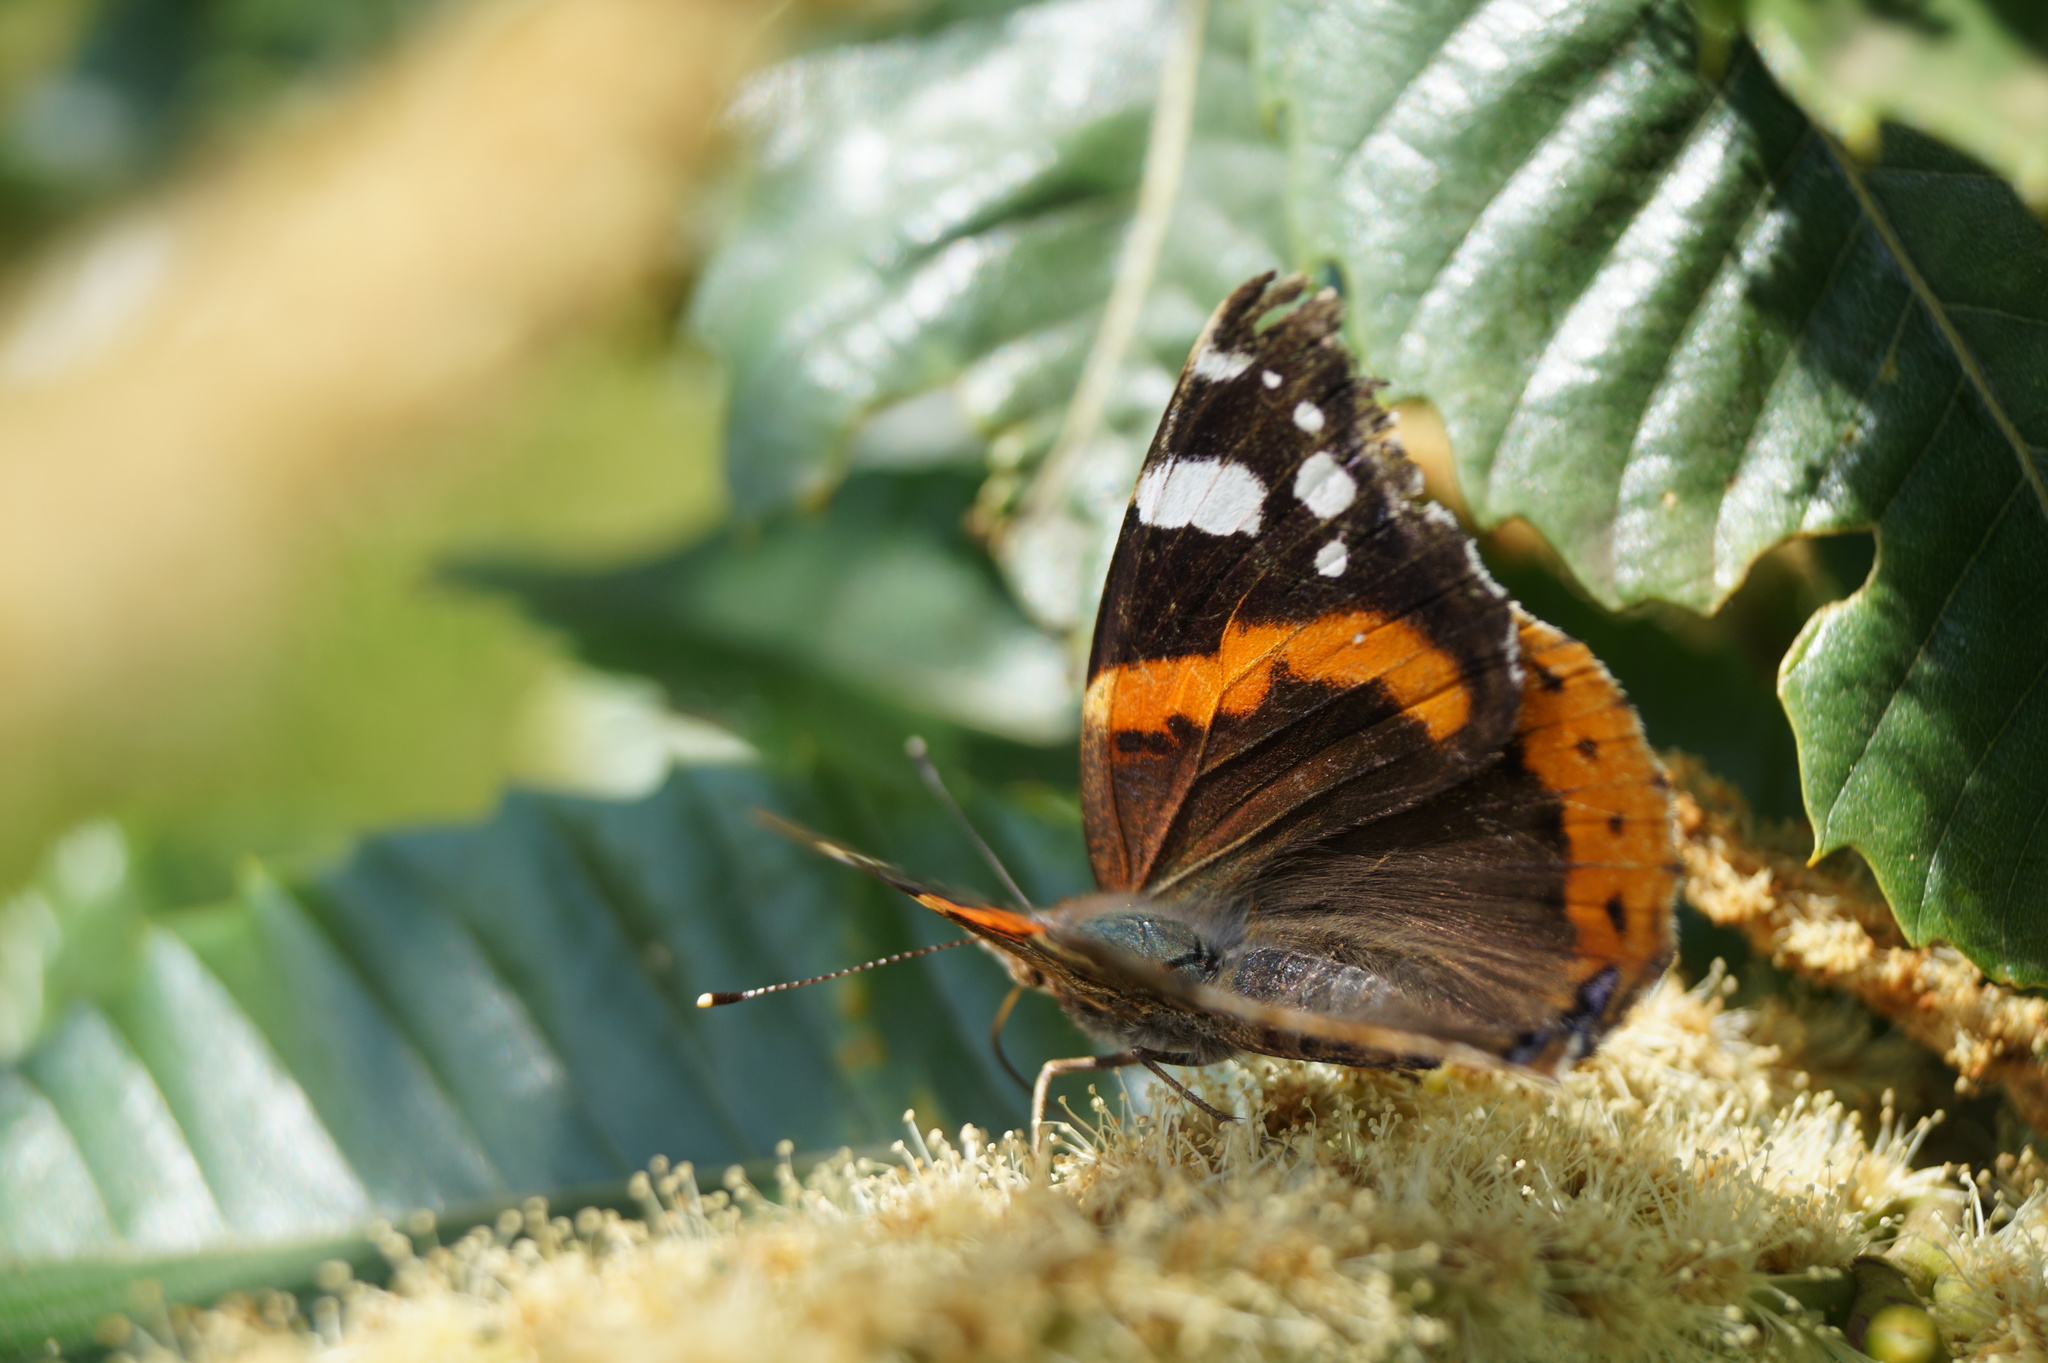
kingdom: Animalia
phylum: Arthropoda
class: Insecta
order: Lepidoptera
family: Nymphalidae
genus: Vanessa
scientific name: Vanessa atalanta
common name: Red admiral
